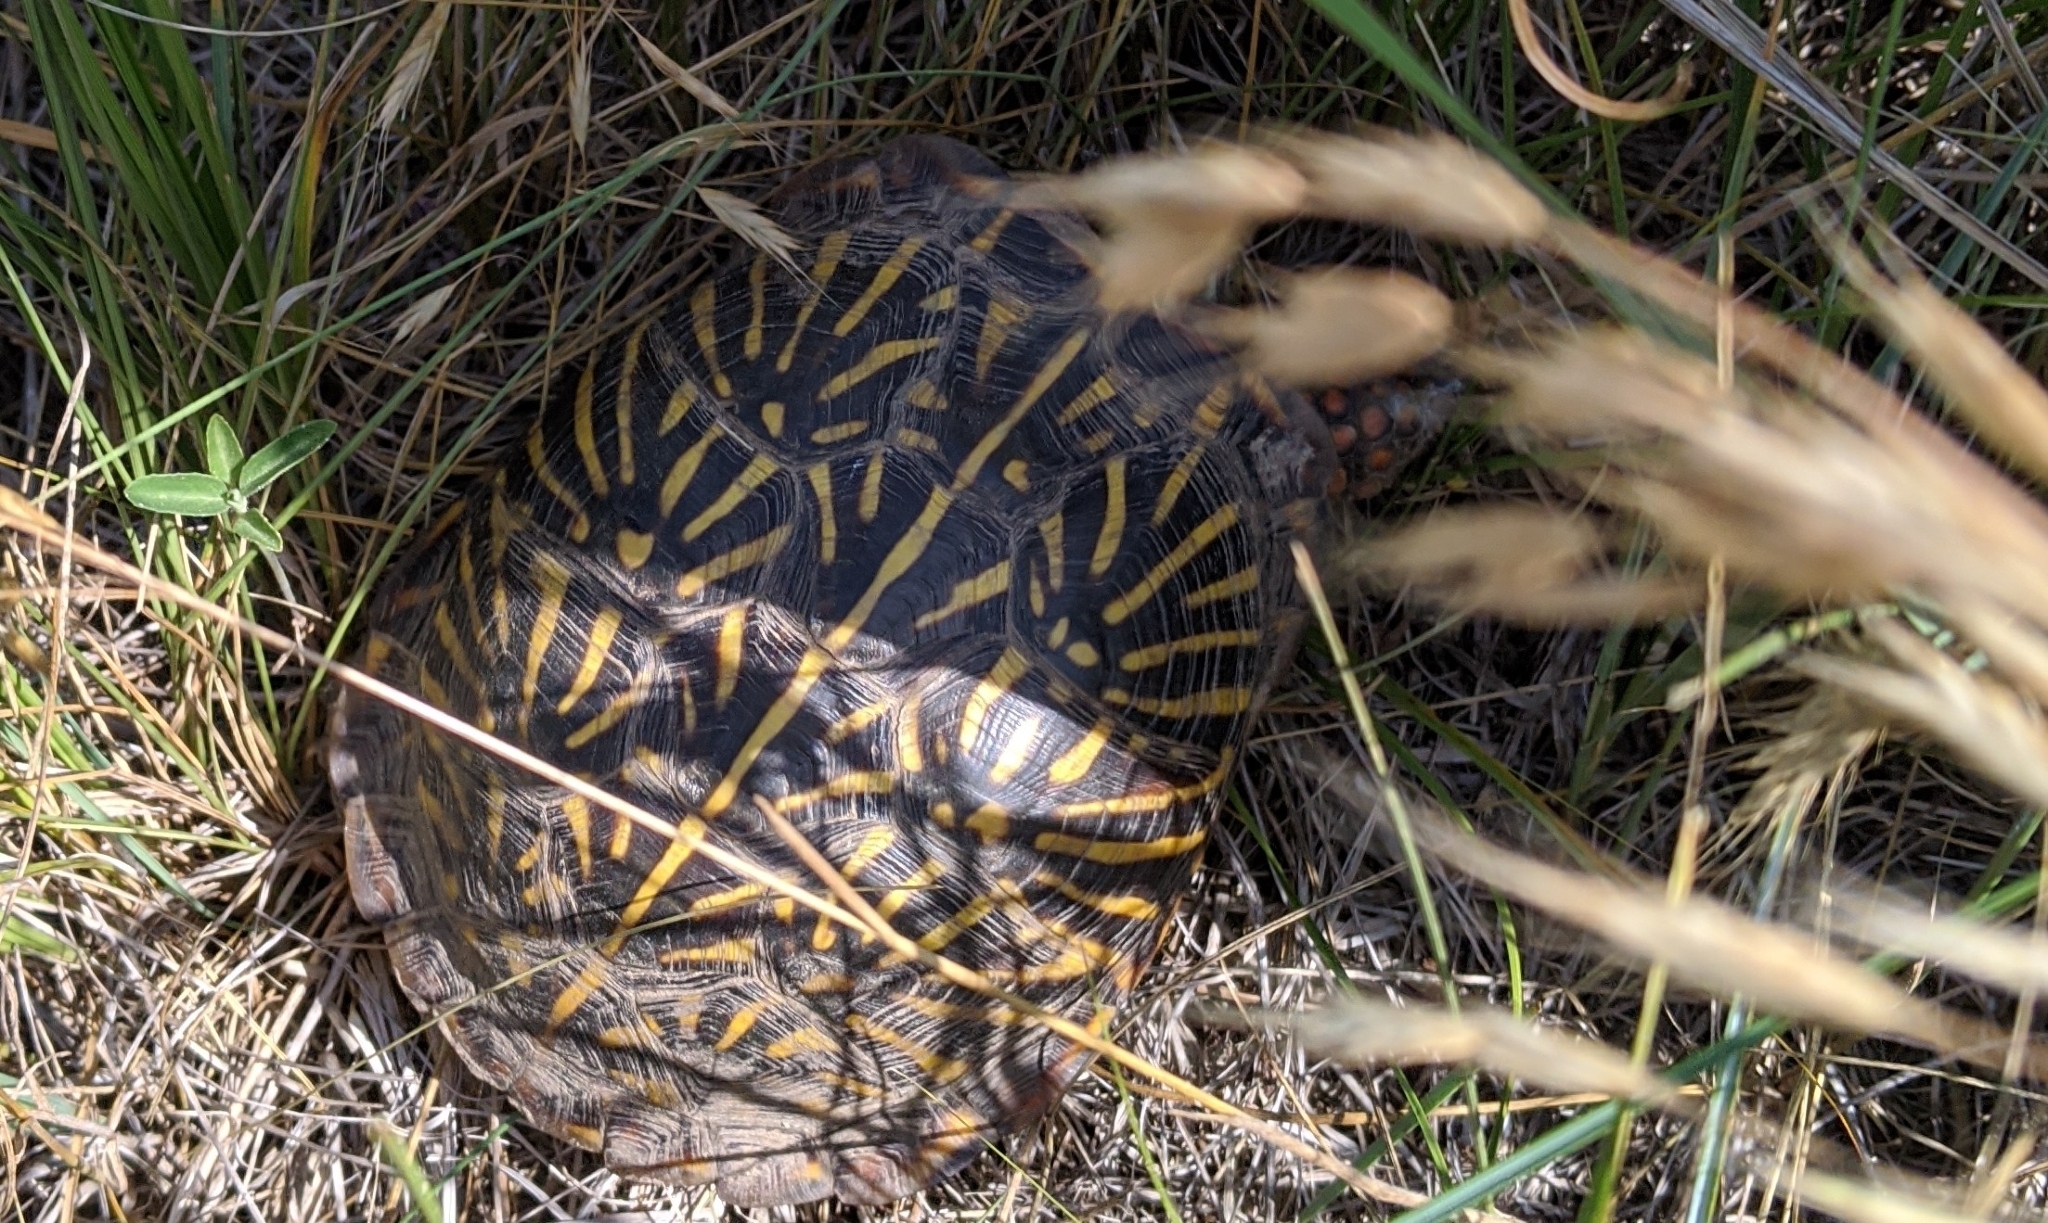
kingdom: Animalia
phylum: Chordata
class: Testudines
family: Emydidae
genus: Terrapene
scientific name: Terrapene ornata
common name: Western box turtle
